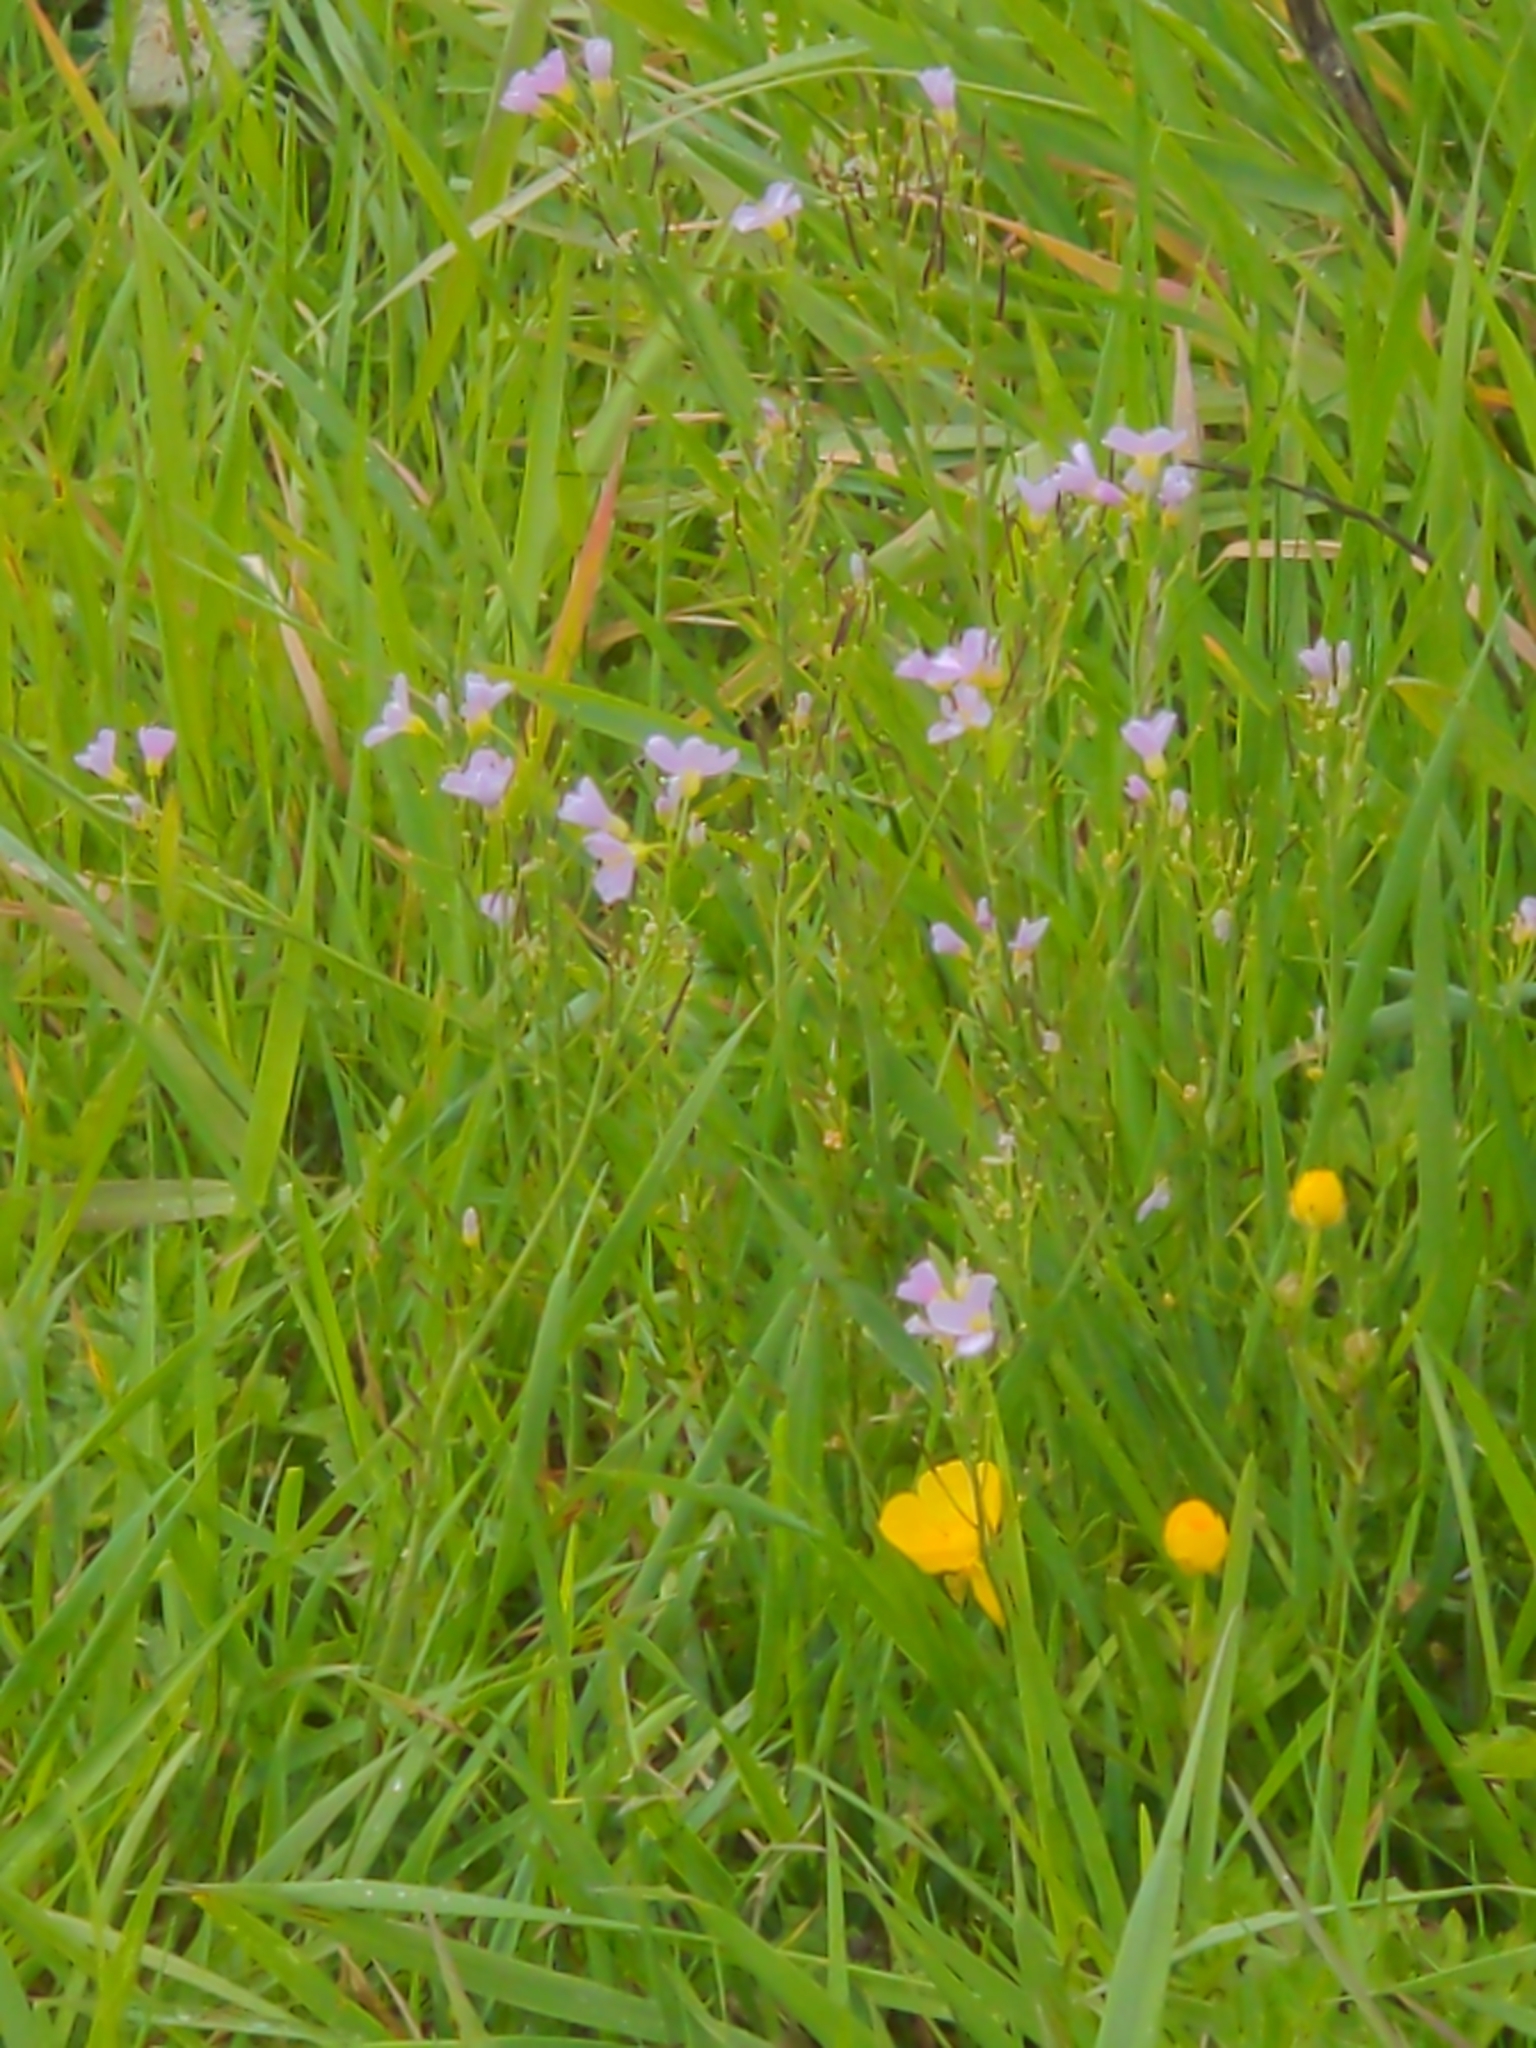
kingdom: Plantae
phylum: Tracheophyta
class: Magnoliopsida
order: Brassicales
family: Brassicaceae
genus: Cardamine
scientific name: Cardamine pratensis
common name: Cuckoo flower
